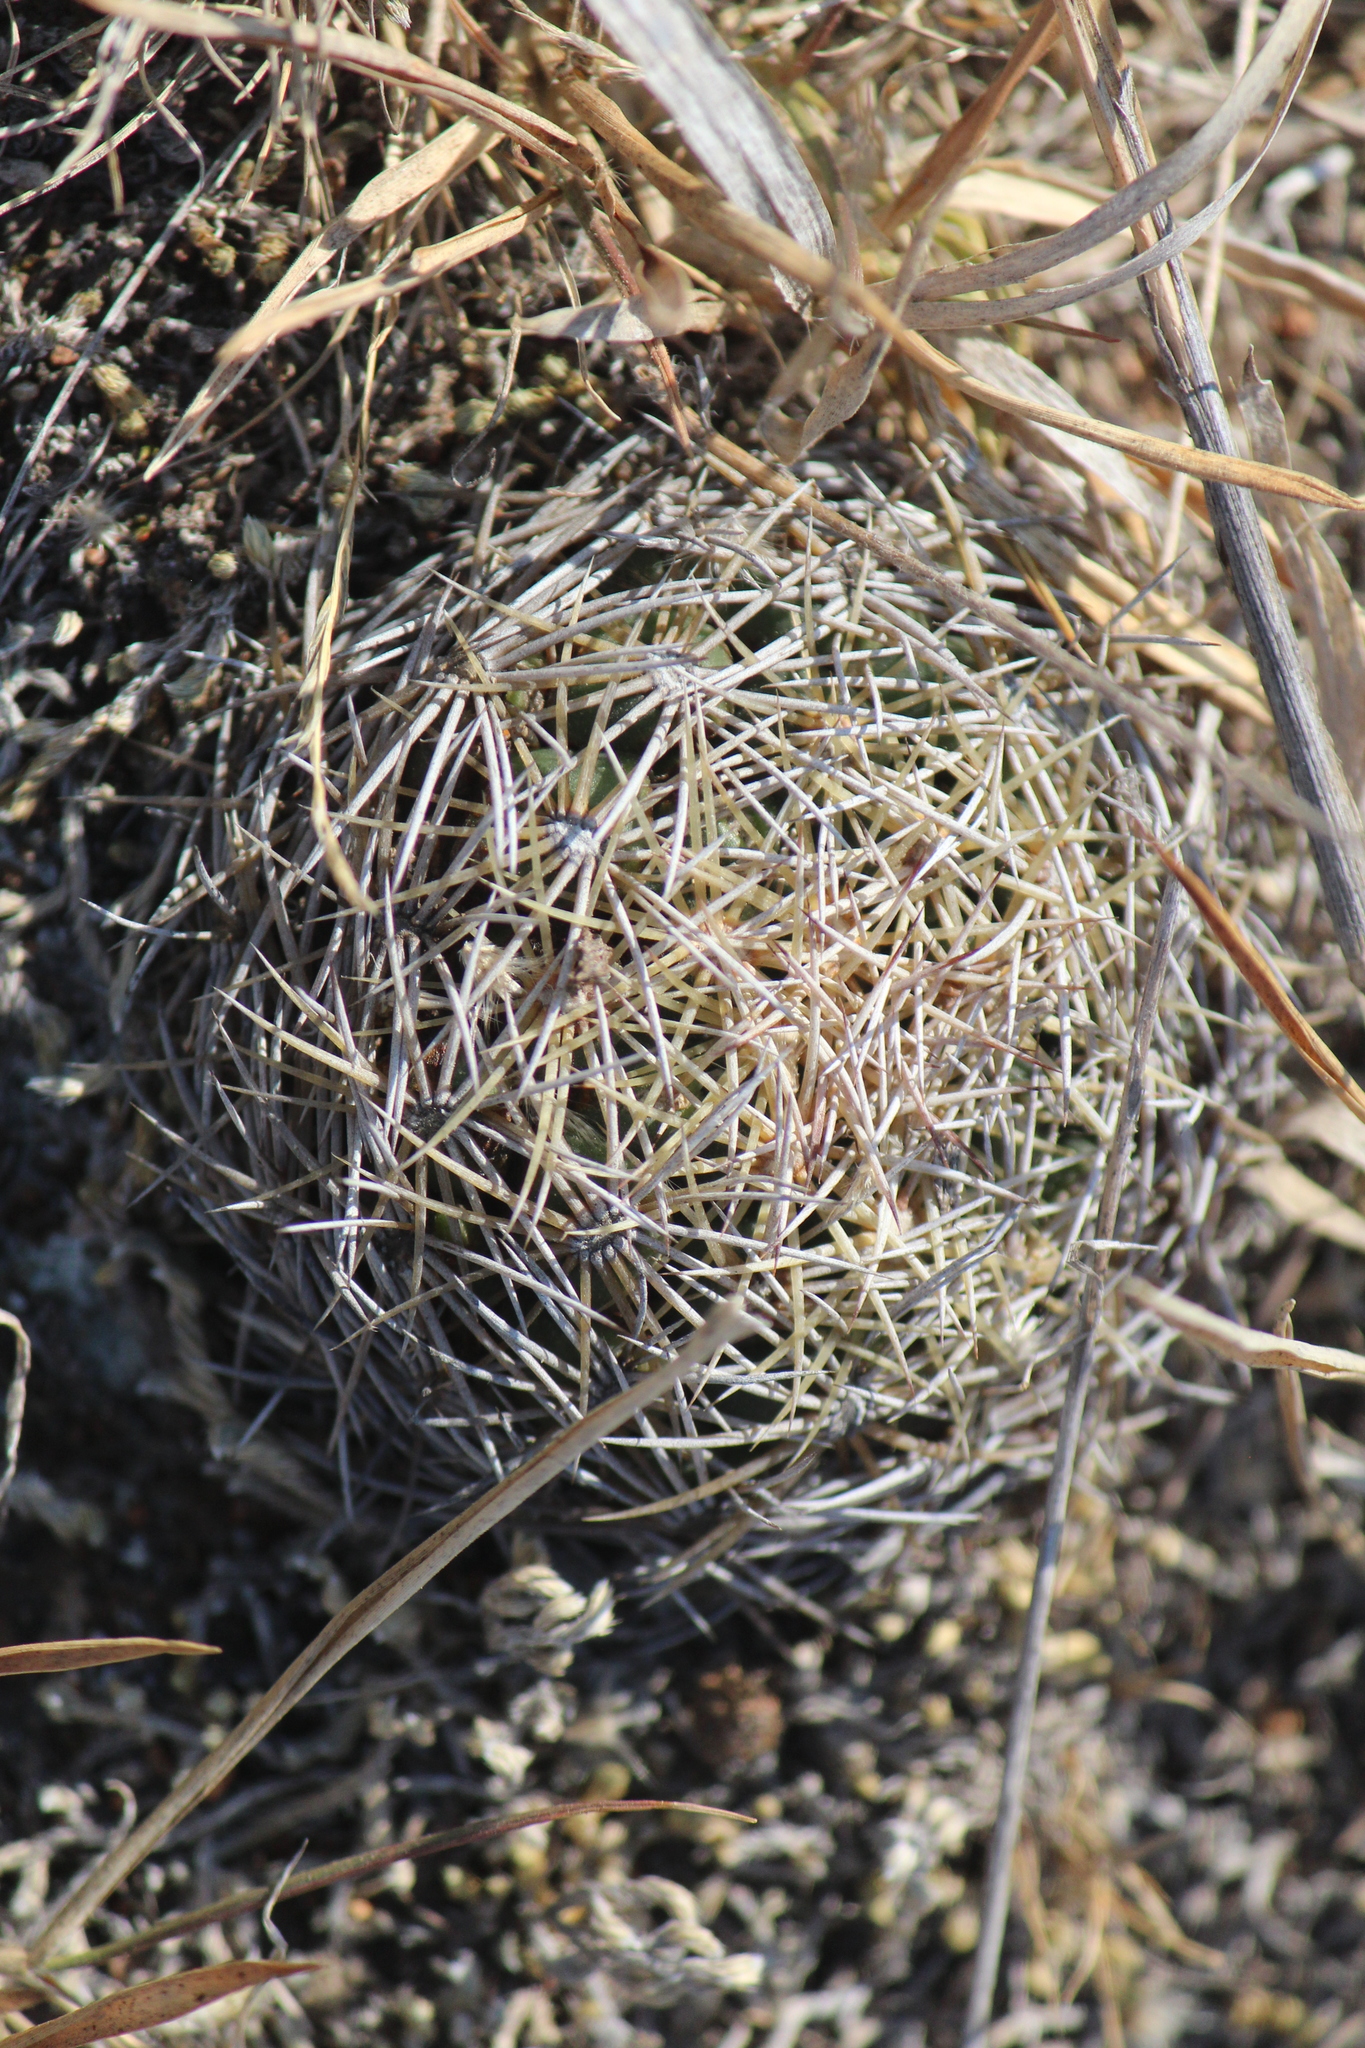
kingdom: Plantae
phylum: Tracheophyta
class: Magnoliopsida
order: Caryophyllales
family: Cactaceae
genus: Coryphantha
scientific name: Coryphantha cornifera
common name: Rhinoceros cactus
